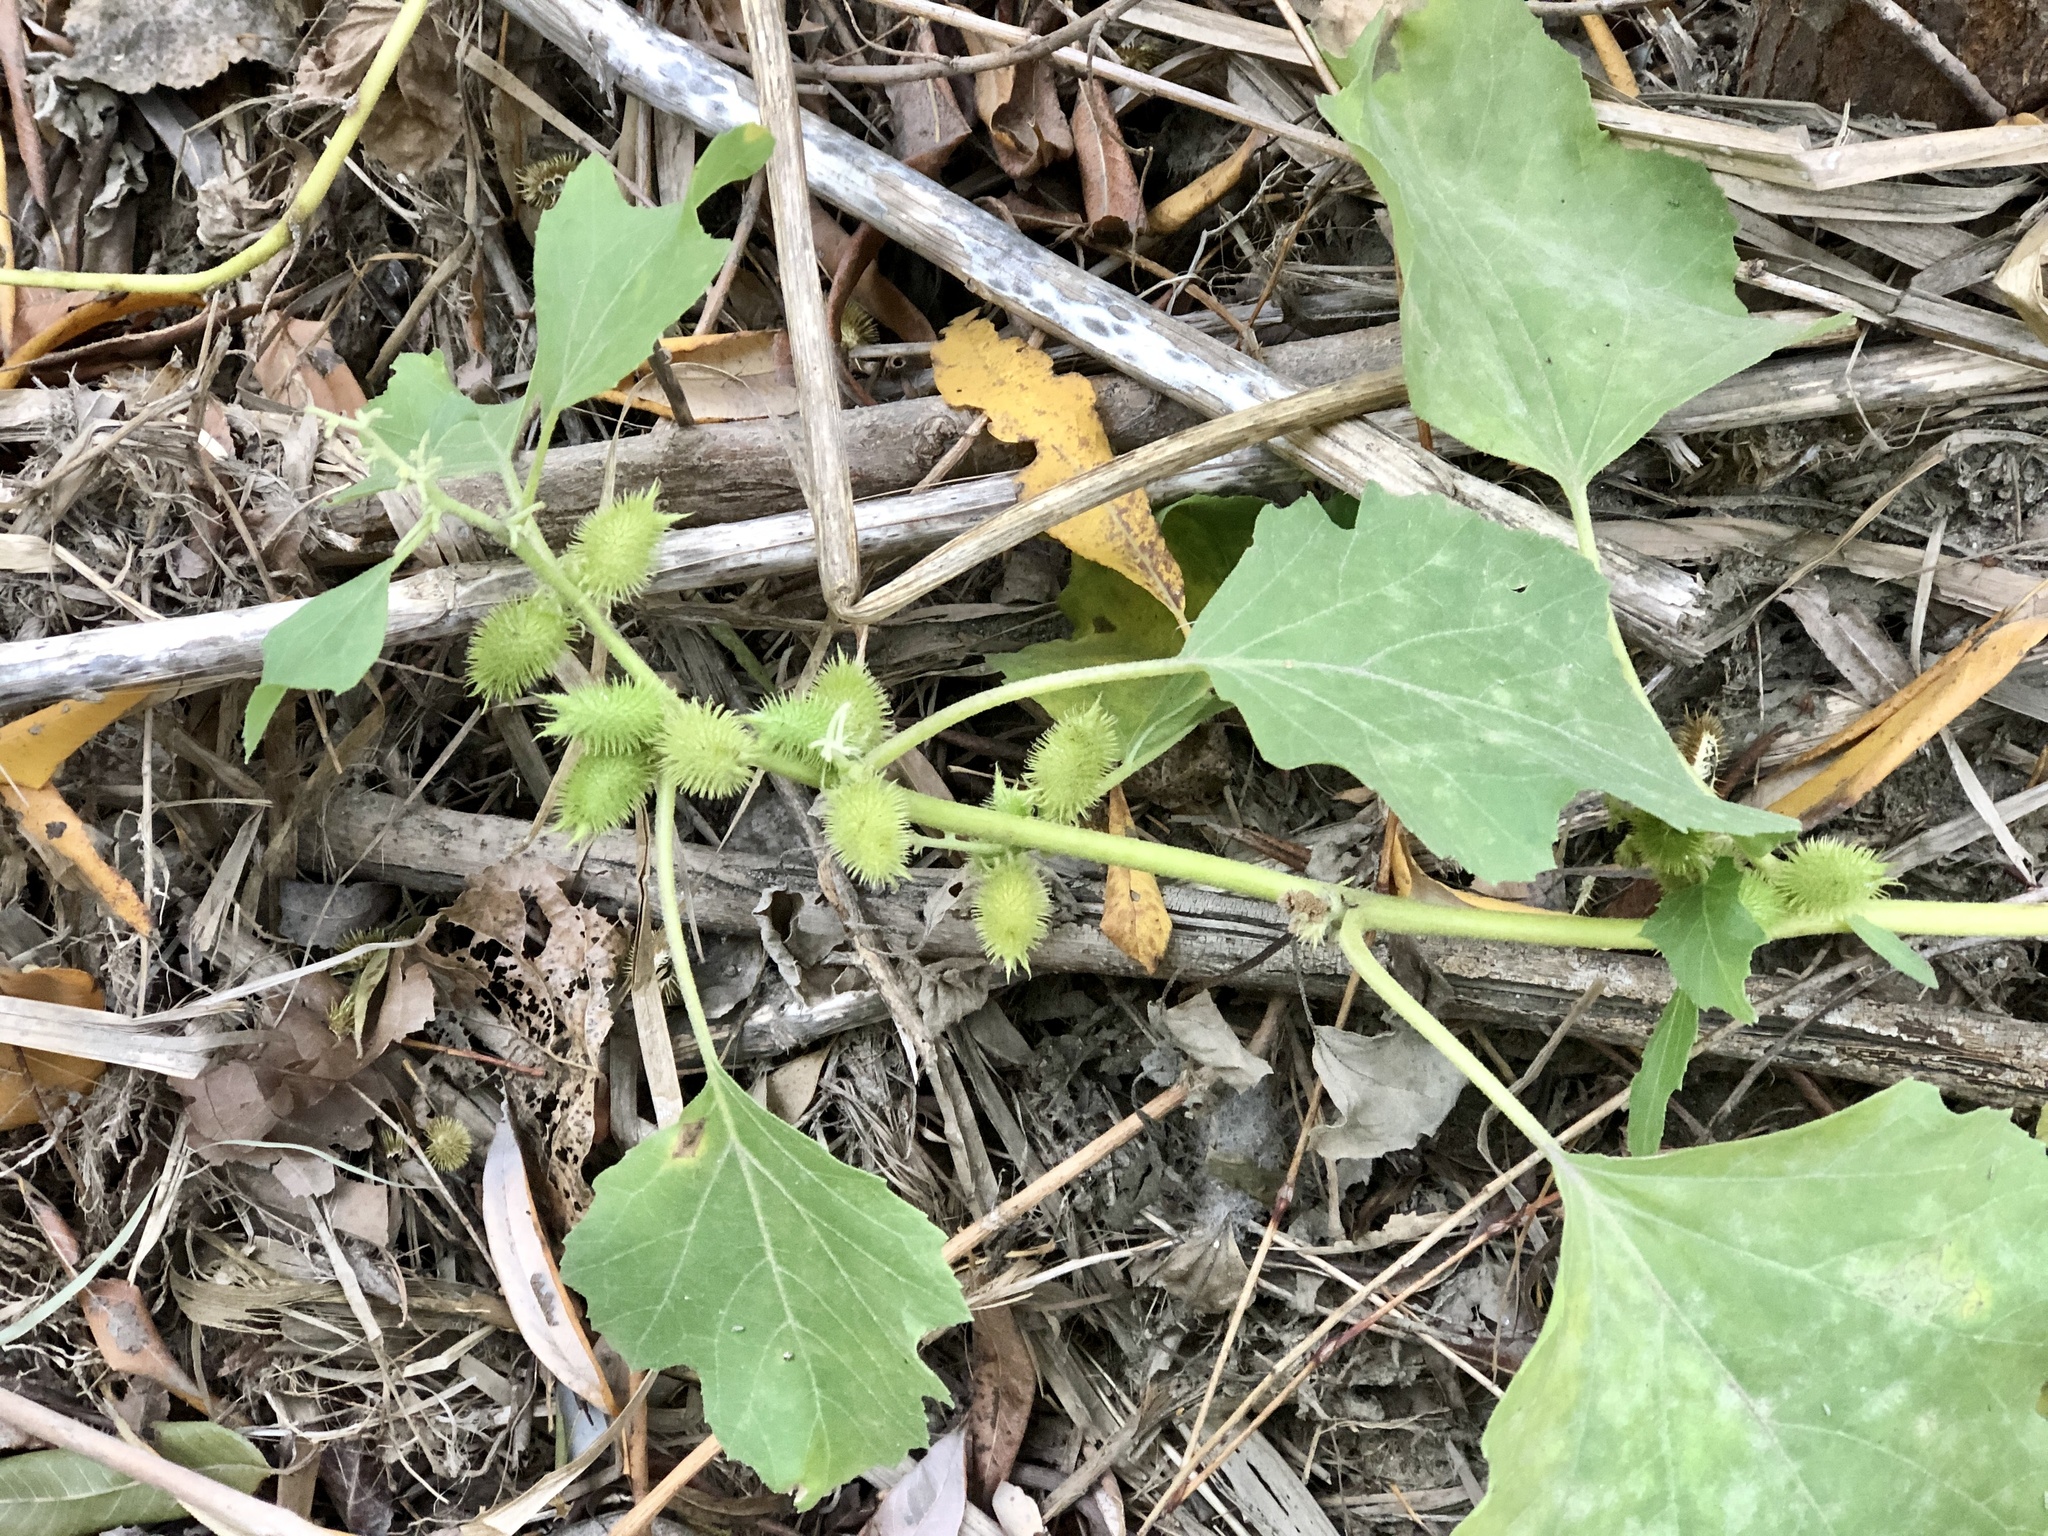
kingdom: Plantae
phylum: Tracheophyta
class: Magnoliopsida
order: Asterales
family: Asteraceae
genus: Xanthium
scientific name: Xanthium strumarium
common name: Rough cocklebur
